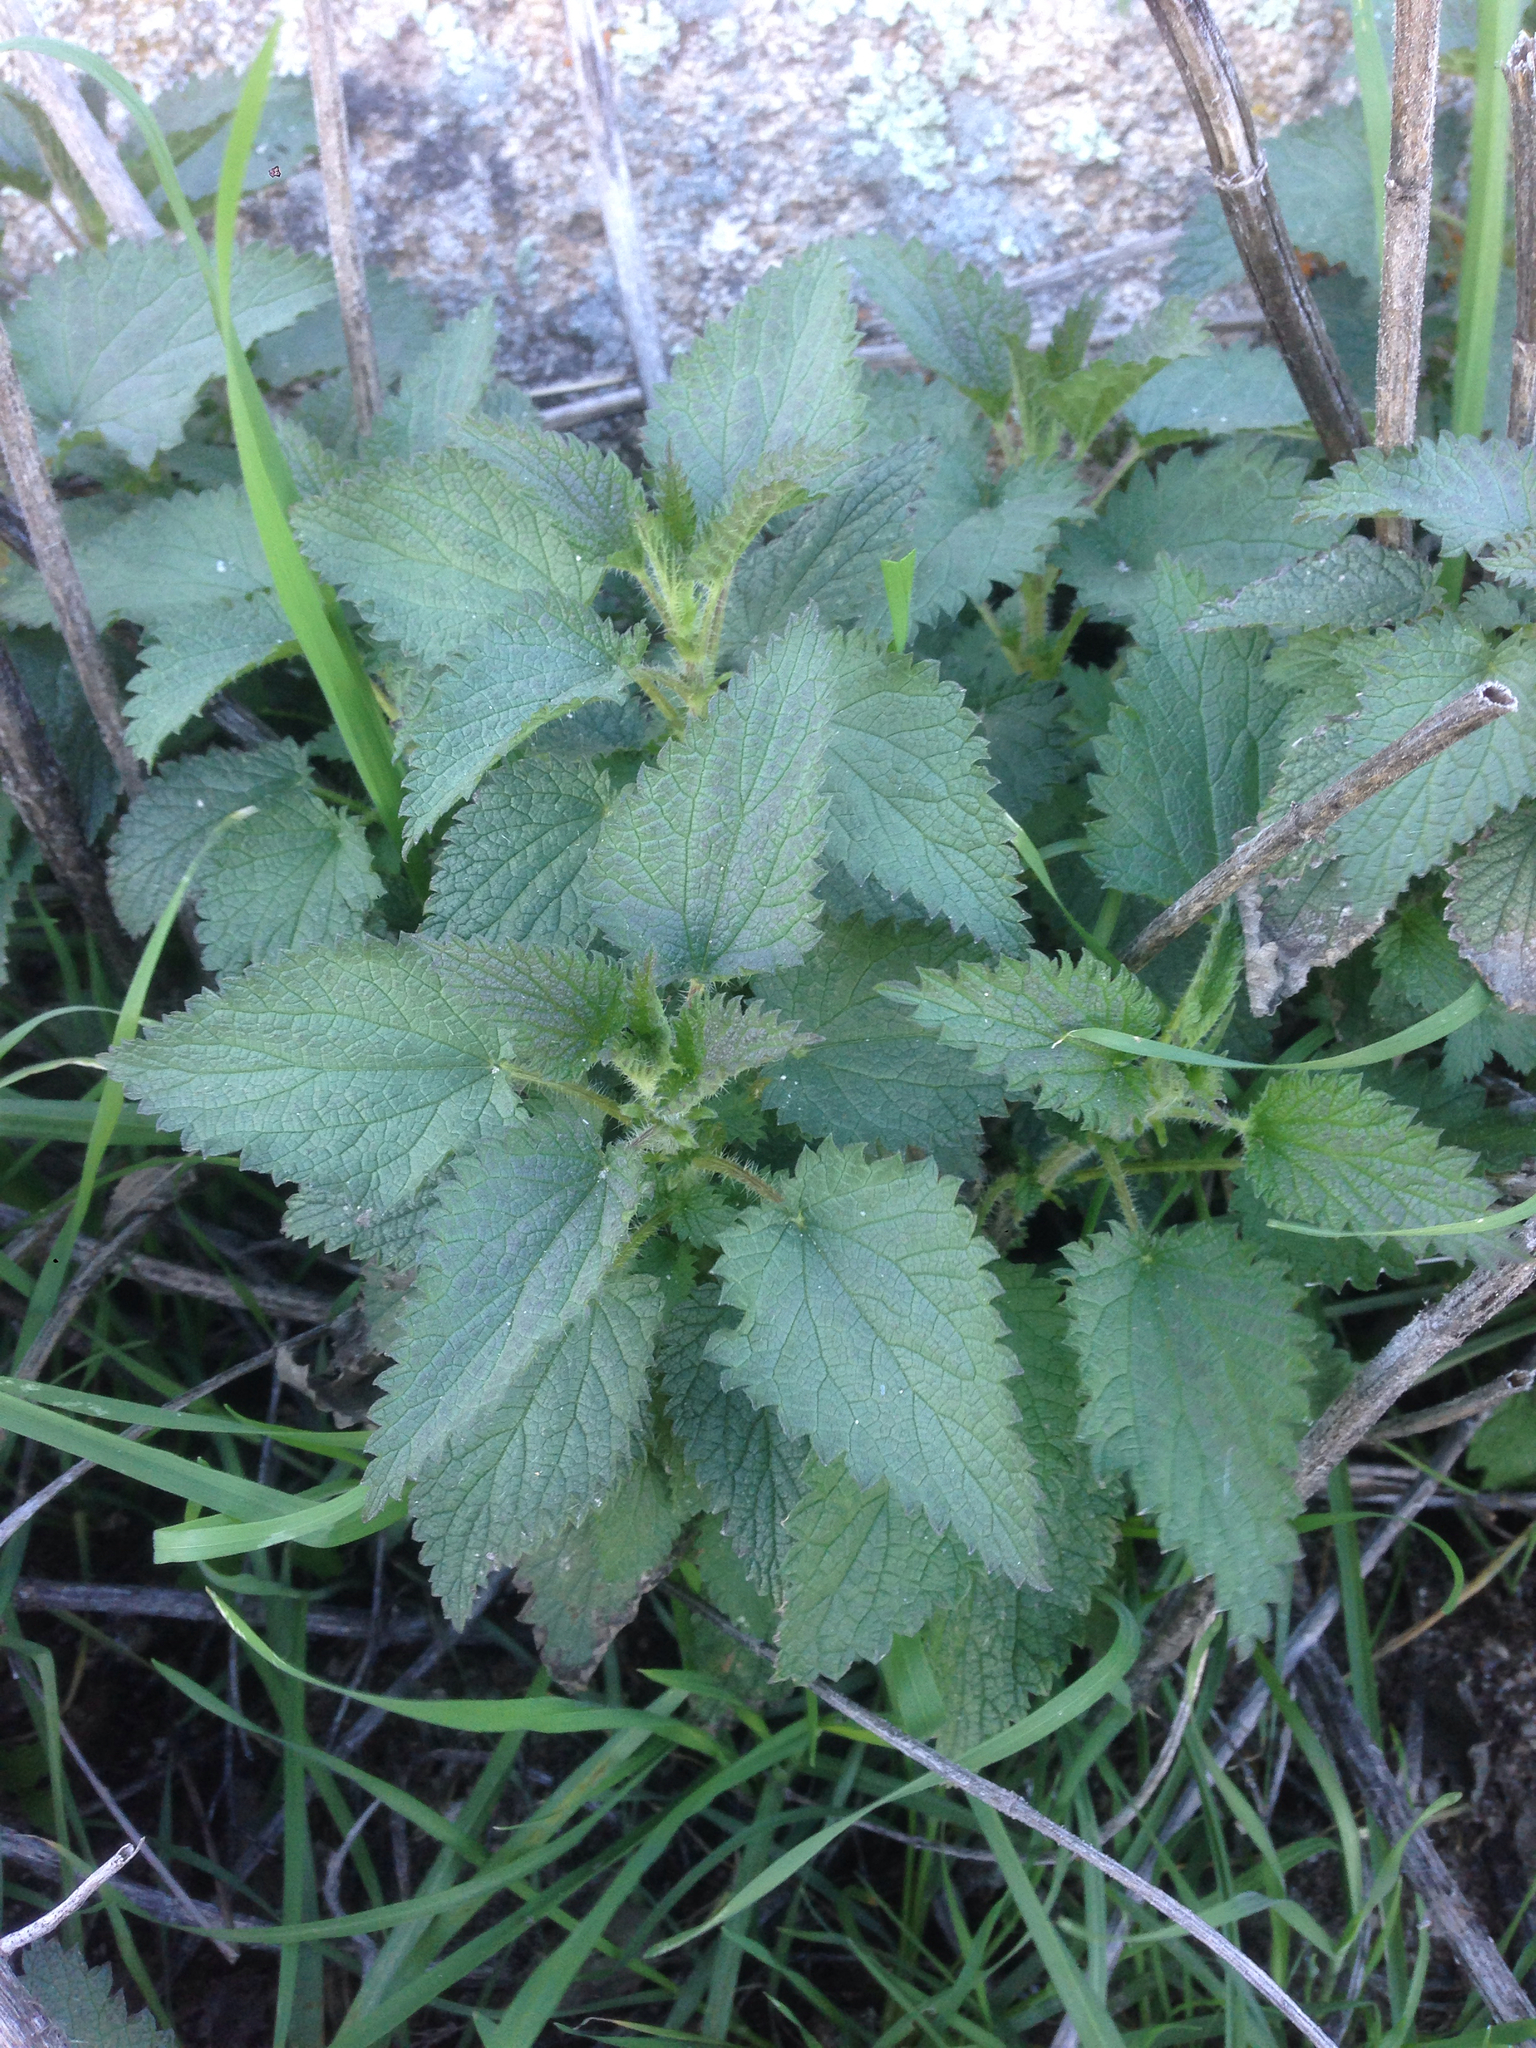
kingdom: Plantae
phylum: Tracheophyta
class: Magnoliopsida
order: Rosales
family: Urticaceae
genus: Urtica
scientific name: Urtica dioica
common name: Common nettle
